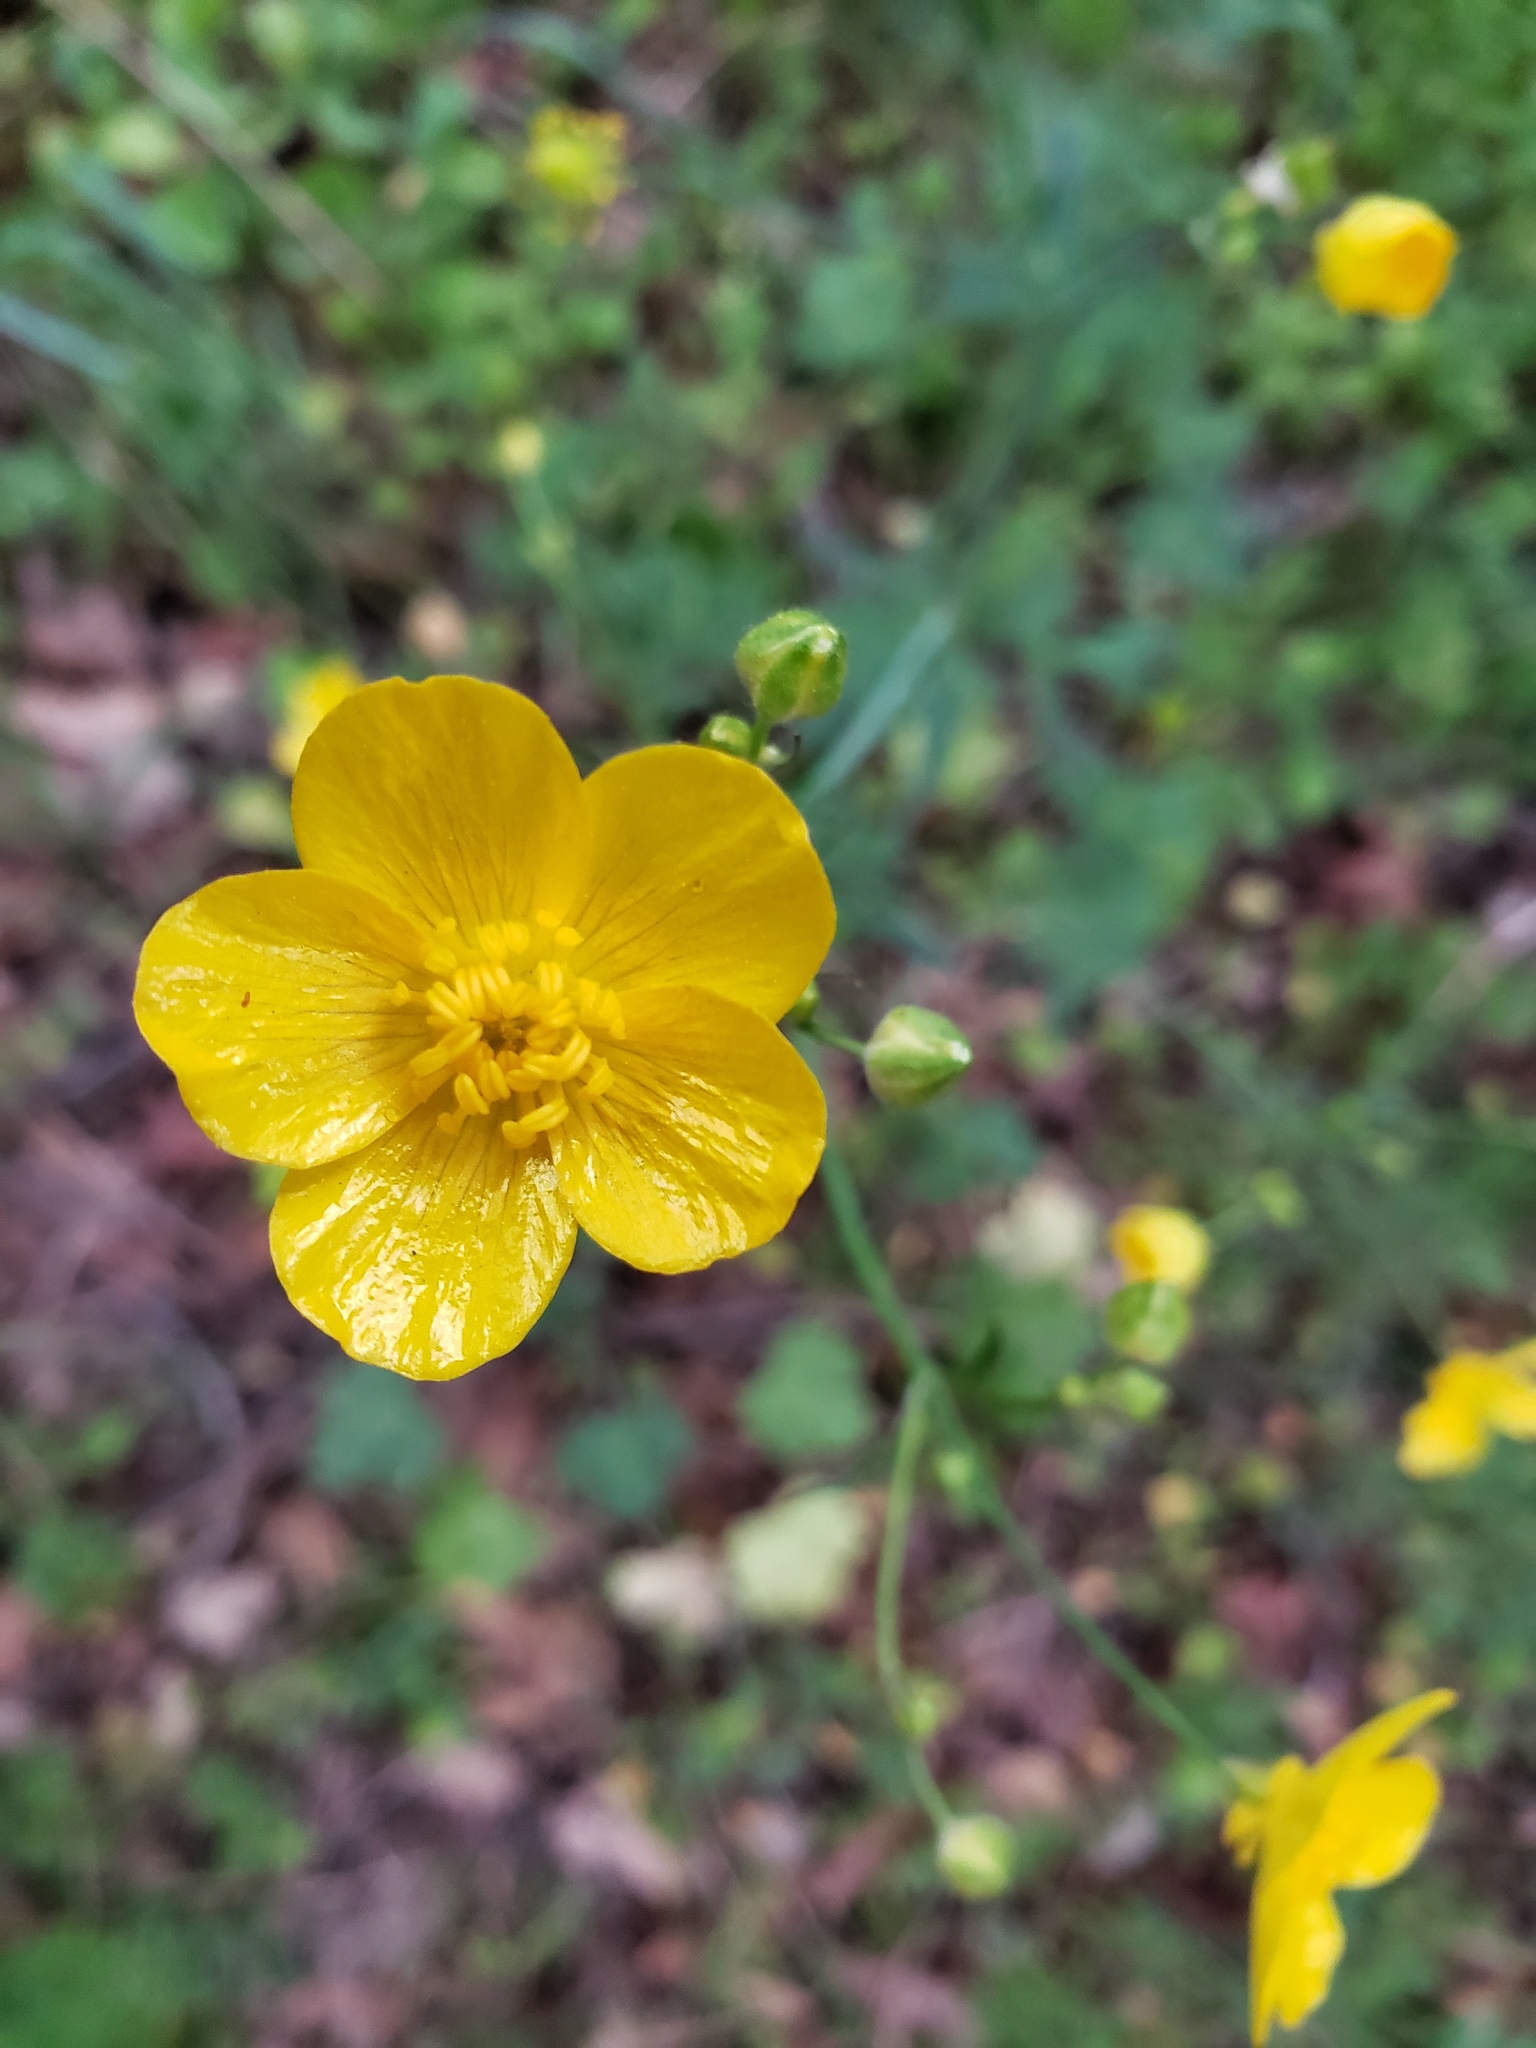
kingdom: Plantae
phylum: Tracheophyta
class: Magnoliopsida
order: Ranunculales
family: Ranunculaceae
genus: Ranunculus
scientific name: Ranunculus occidentalis
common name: Western buttercup
